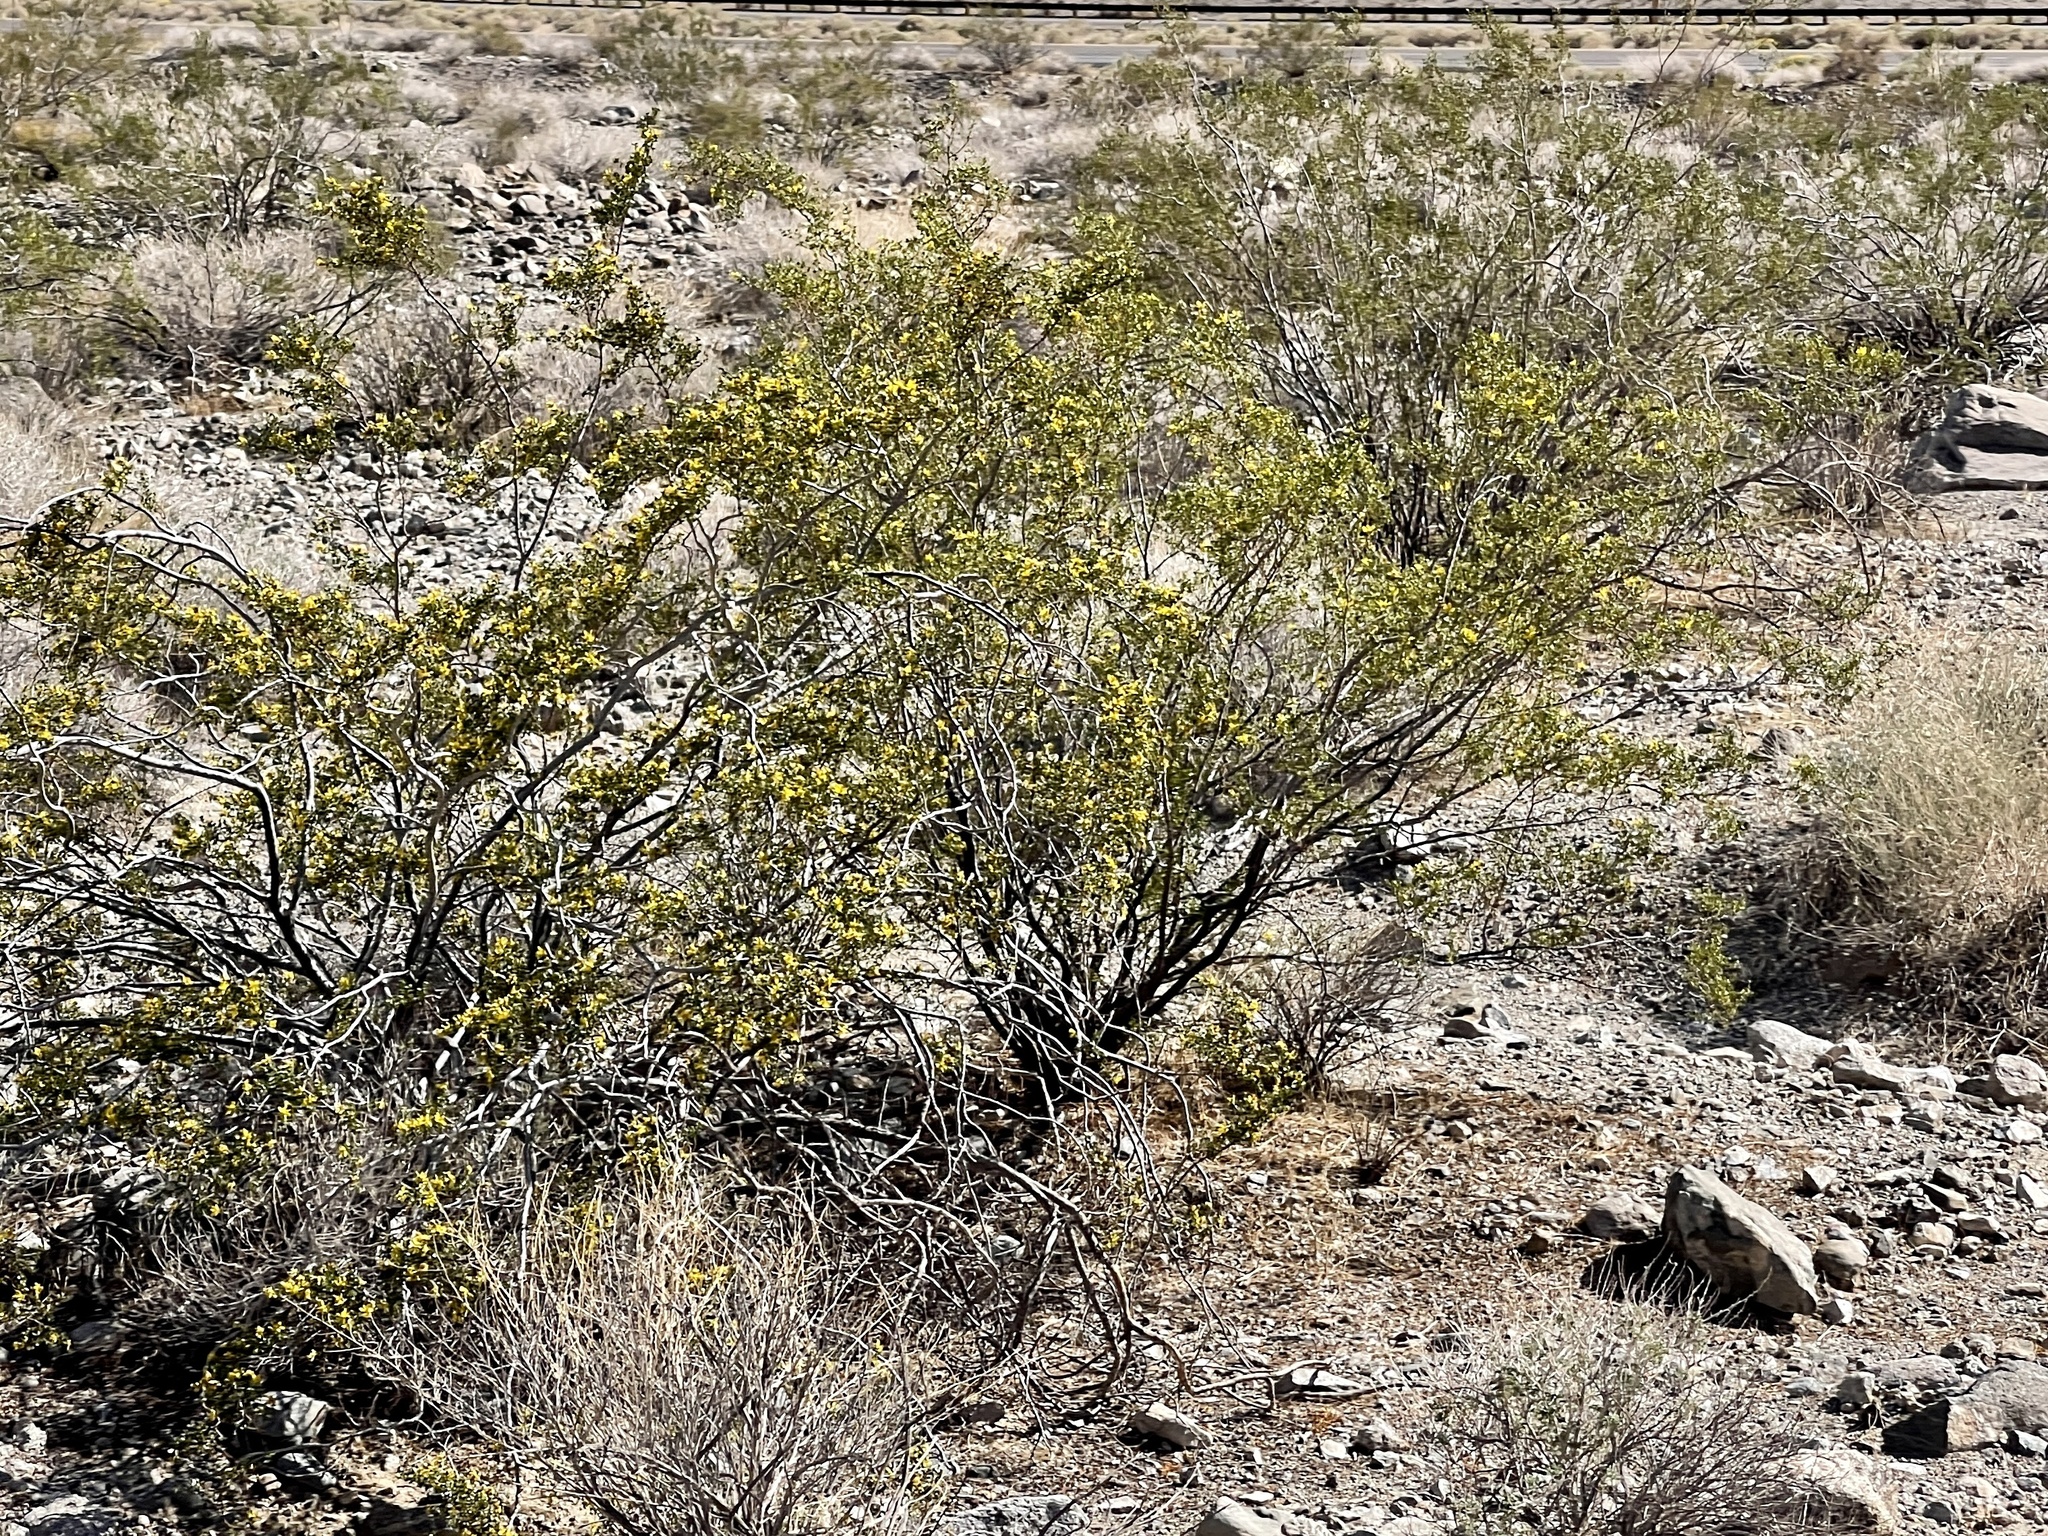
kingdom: Plantae
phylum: Tracheophyta
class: Magnoliopsida
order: Zygophyllales
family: Zygophyllaceae
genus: Larrea
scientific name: Larrea tridentata
